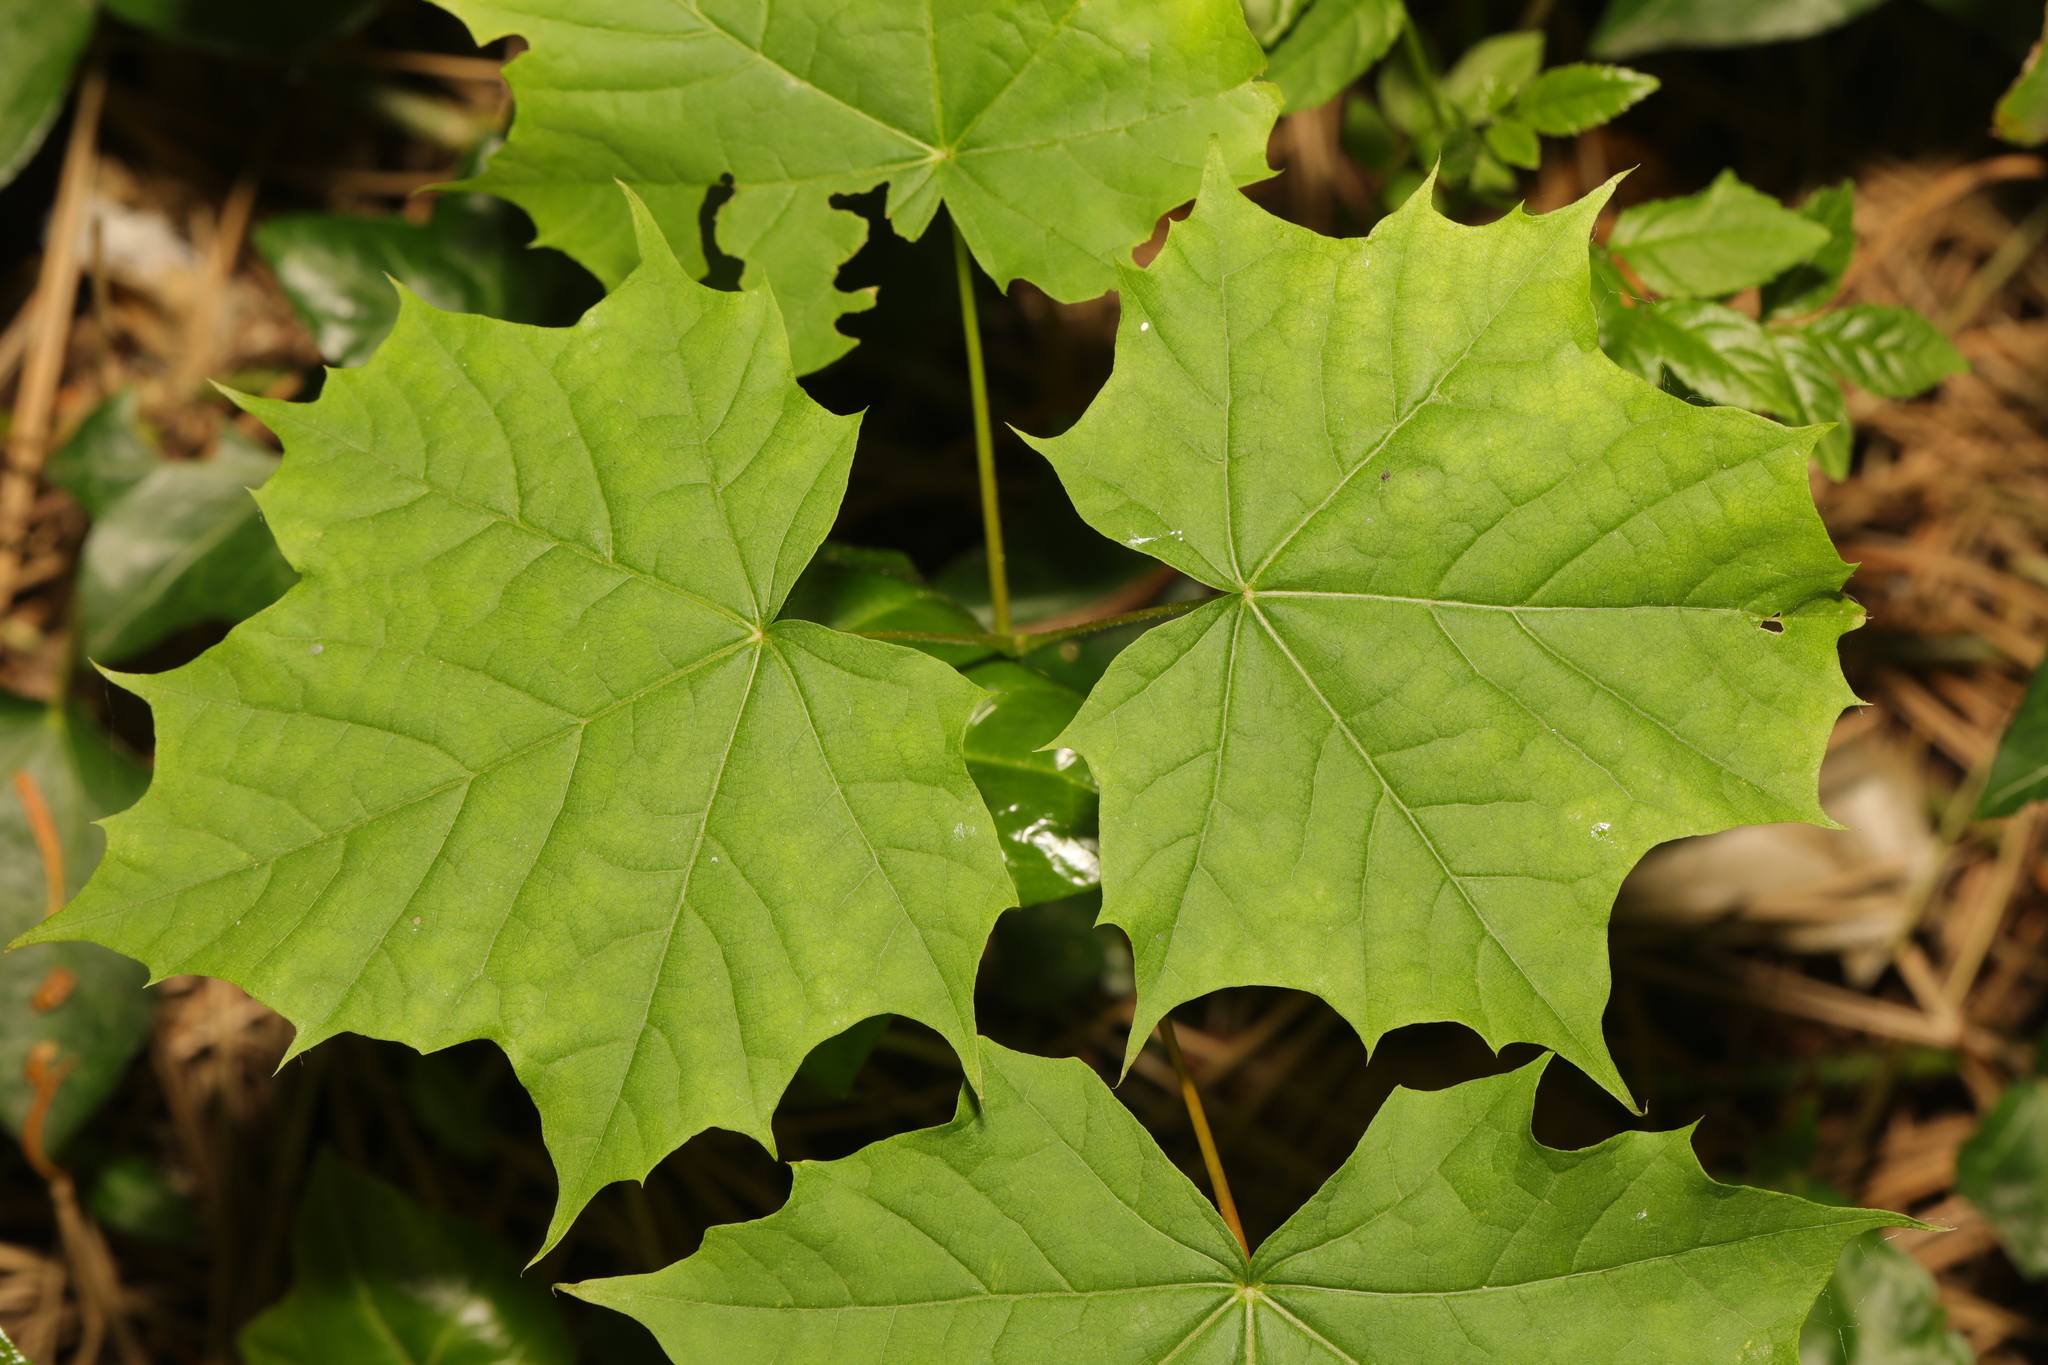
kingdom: Plantae
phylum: Tracheophyta
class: Magnoliopsida
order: Sapindales
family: Sapindaceae
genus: Acer
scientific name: Acer platanoides
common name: Norway maple
